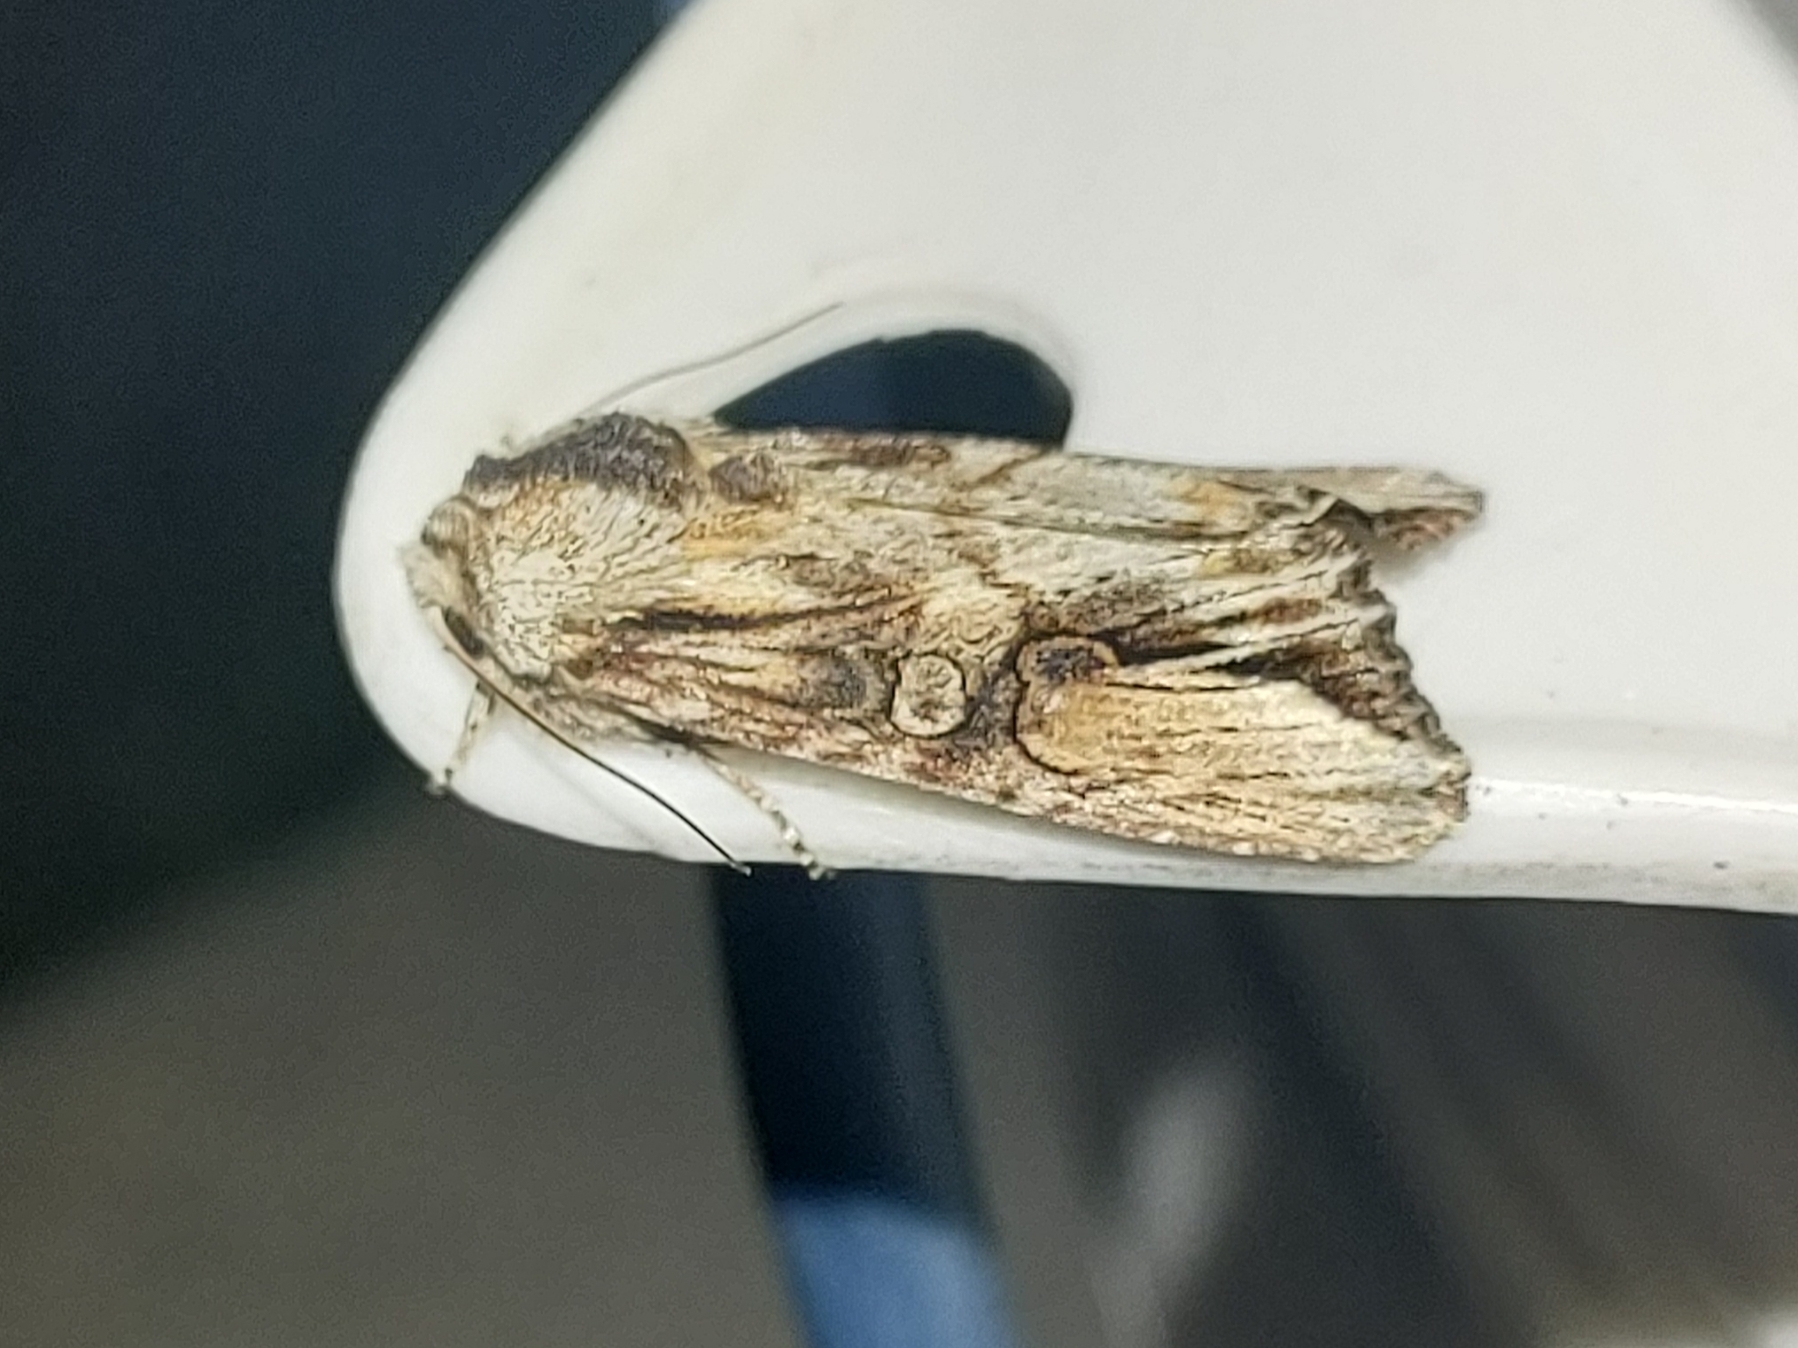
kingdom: Animalia
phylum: Arthropoda
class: Insecta
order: Lepidoptera
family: Noctuidae
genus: Egira
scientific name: Egira conspicillaris
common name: Silver cloud
